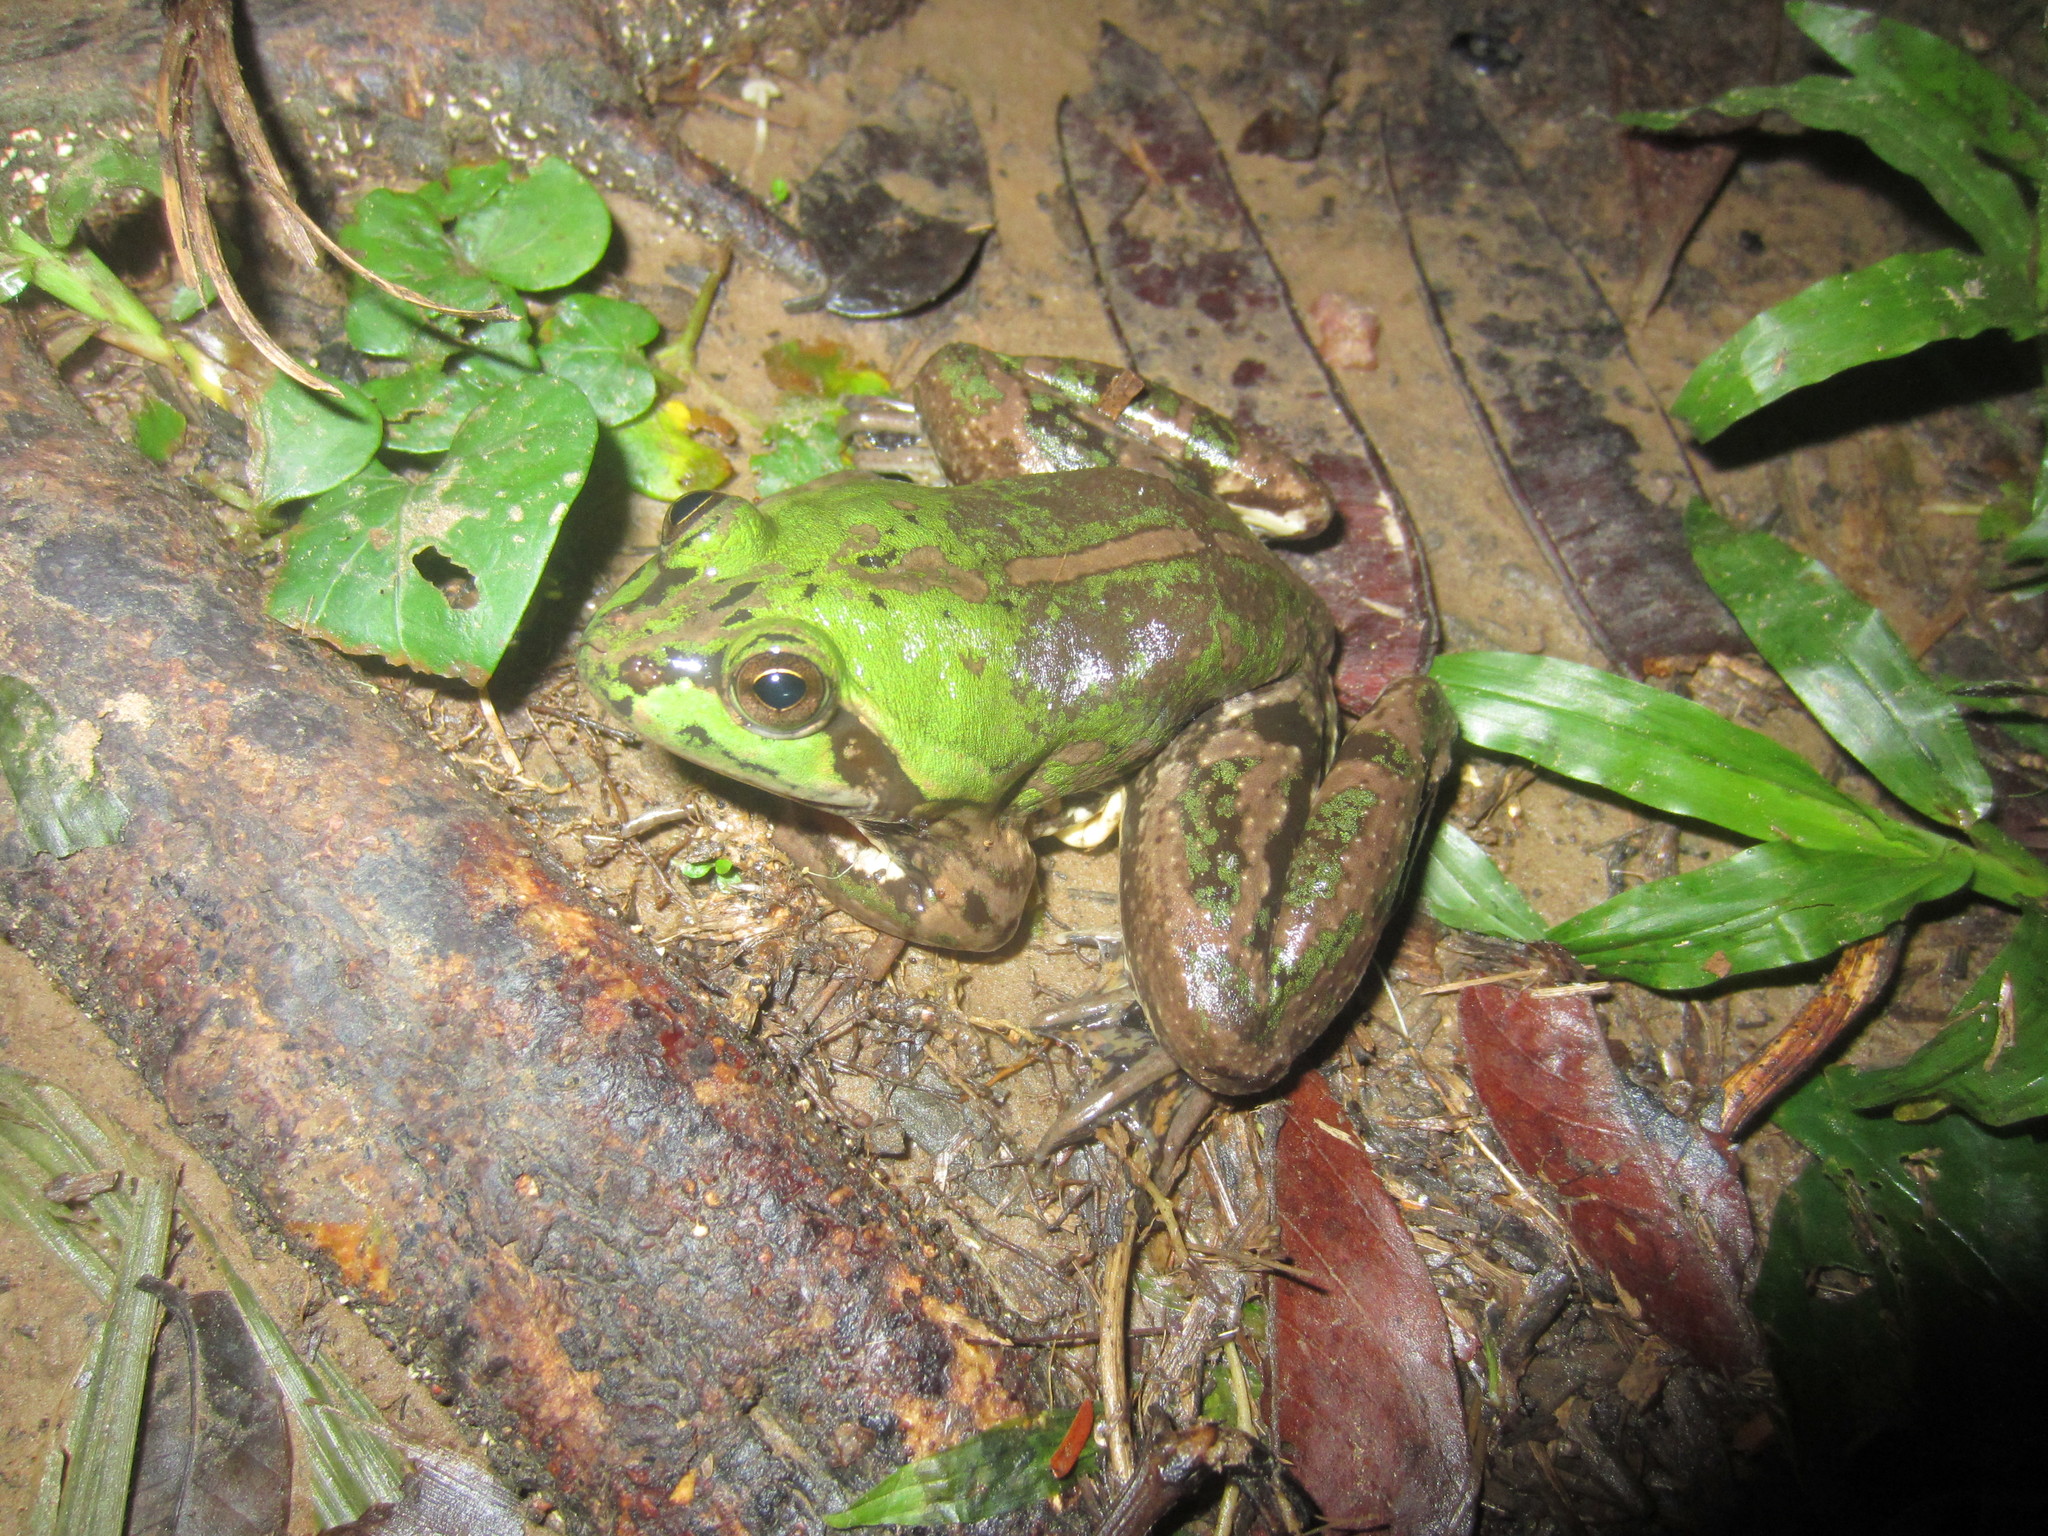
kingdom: Animalia
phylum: Chordata
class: Amphibia
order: Anura
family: Hylidae
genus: Pseudis
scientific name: Pseudis paradoxa
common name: Swimming frog
